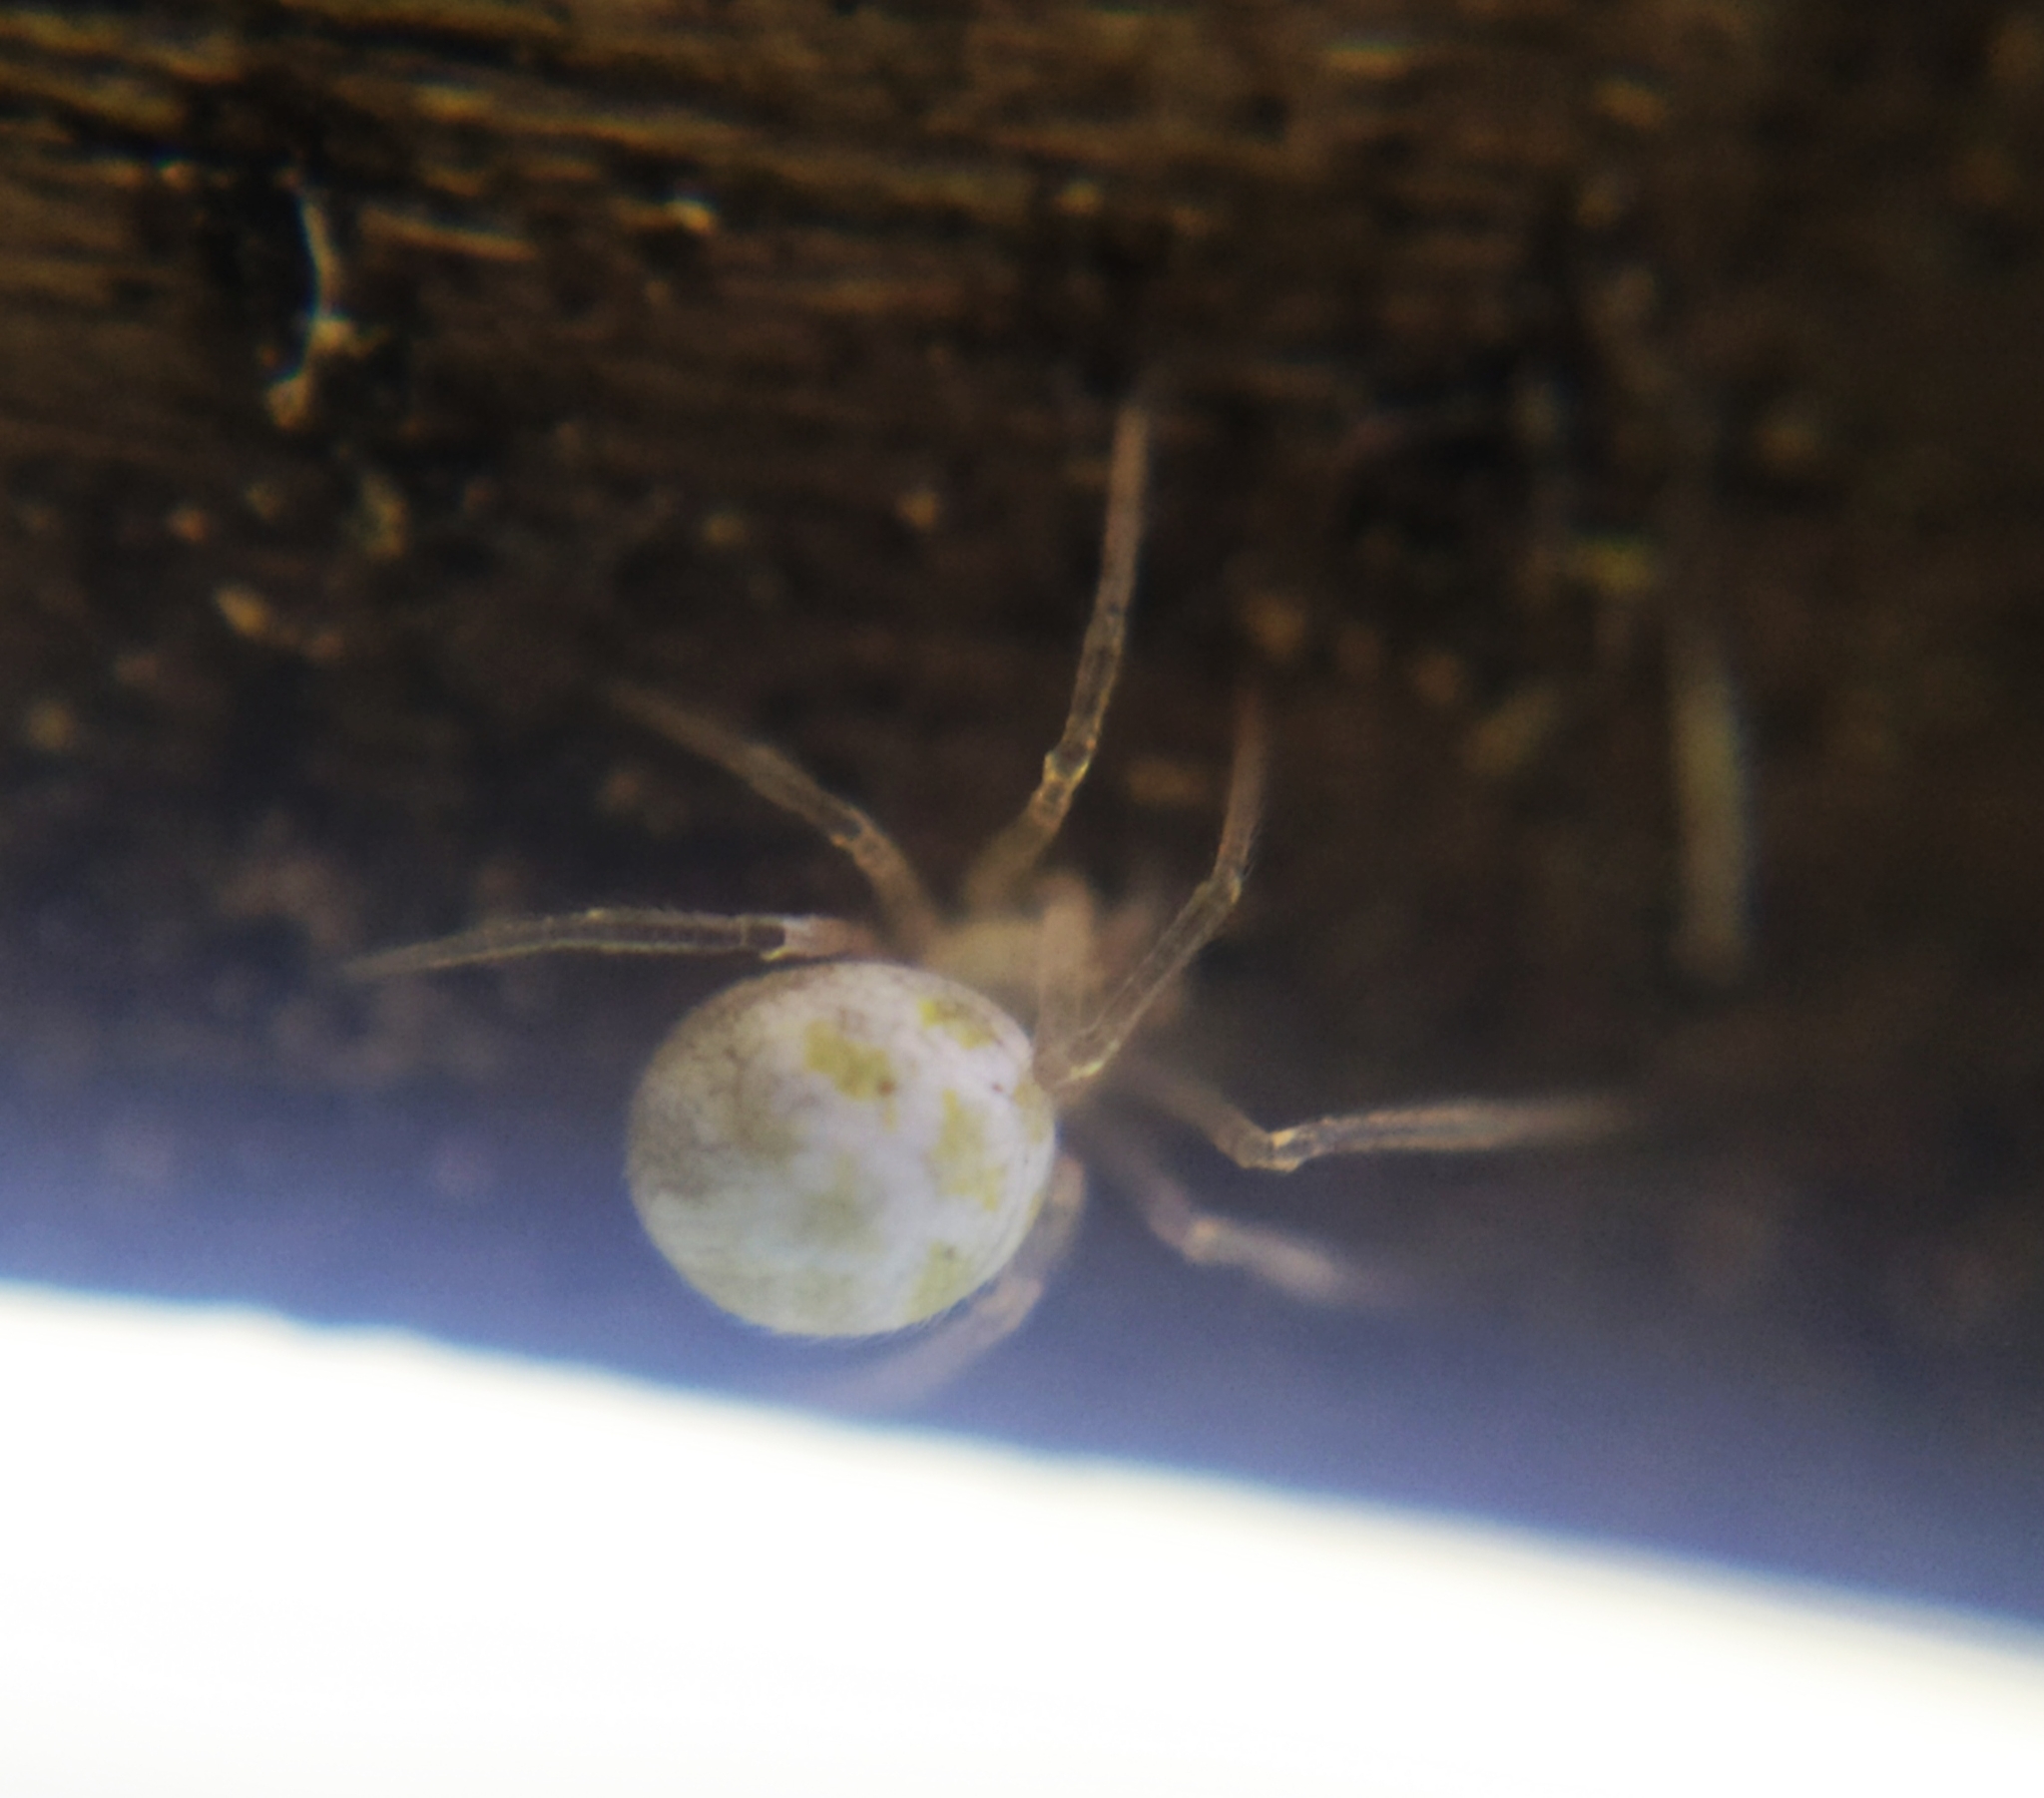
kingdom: Animalia
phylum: Arthropoda
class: Arachnida
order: Araneae
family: Theridiidae
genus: Heterotheridion
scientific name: Heterotheridion nigrovariegatum
